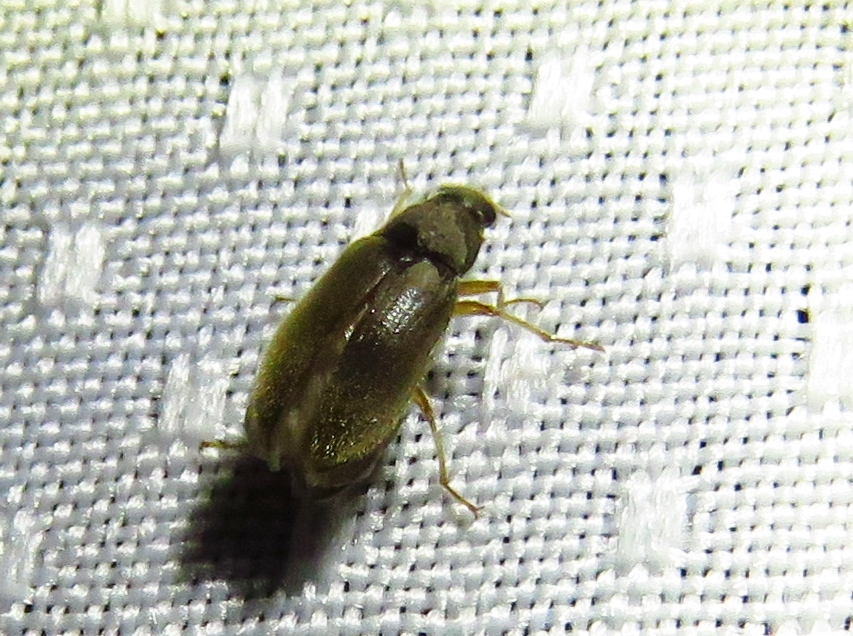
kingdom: Animalia
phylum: Arthropoda
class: Insecta
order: Coleoptera
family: Dryopidae
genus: Pelonomus
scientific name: Pelonomus obscurus
